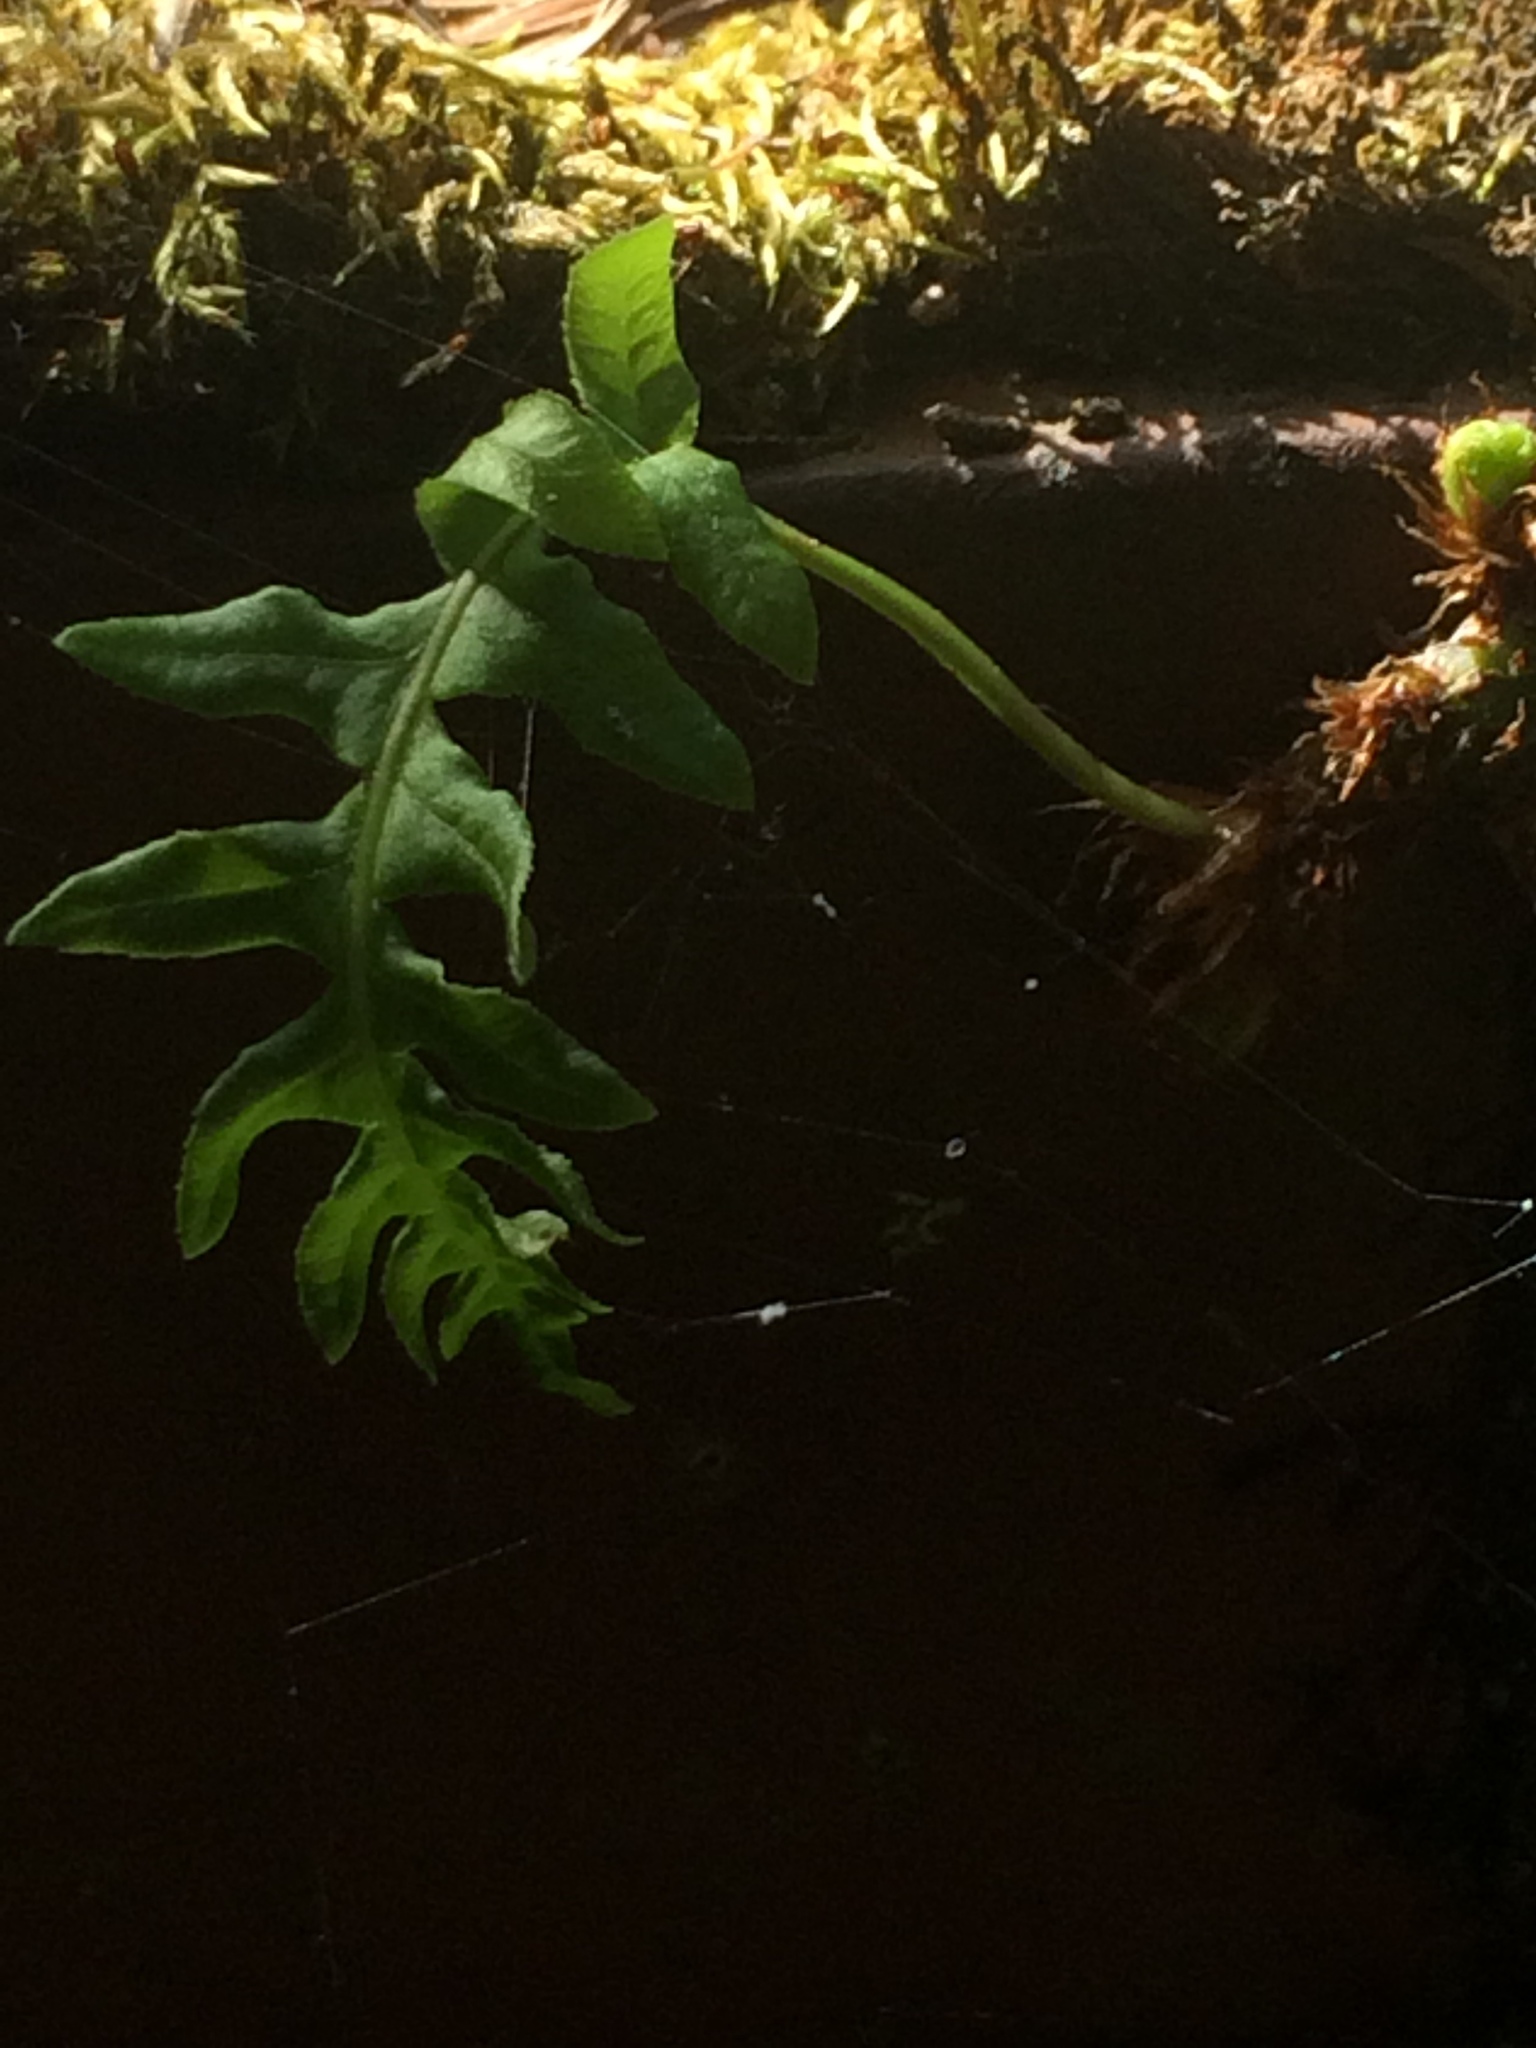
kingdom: Plantae
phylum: Tracheophyta
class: Polypodiopsida
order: Polypodiales
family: Polypodiaceae
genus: Polypodium
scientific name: Polypodium glycyrrhiza
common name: Licorice fern
